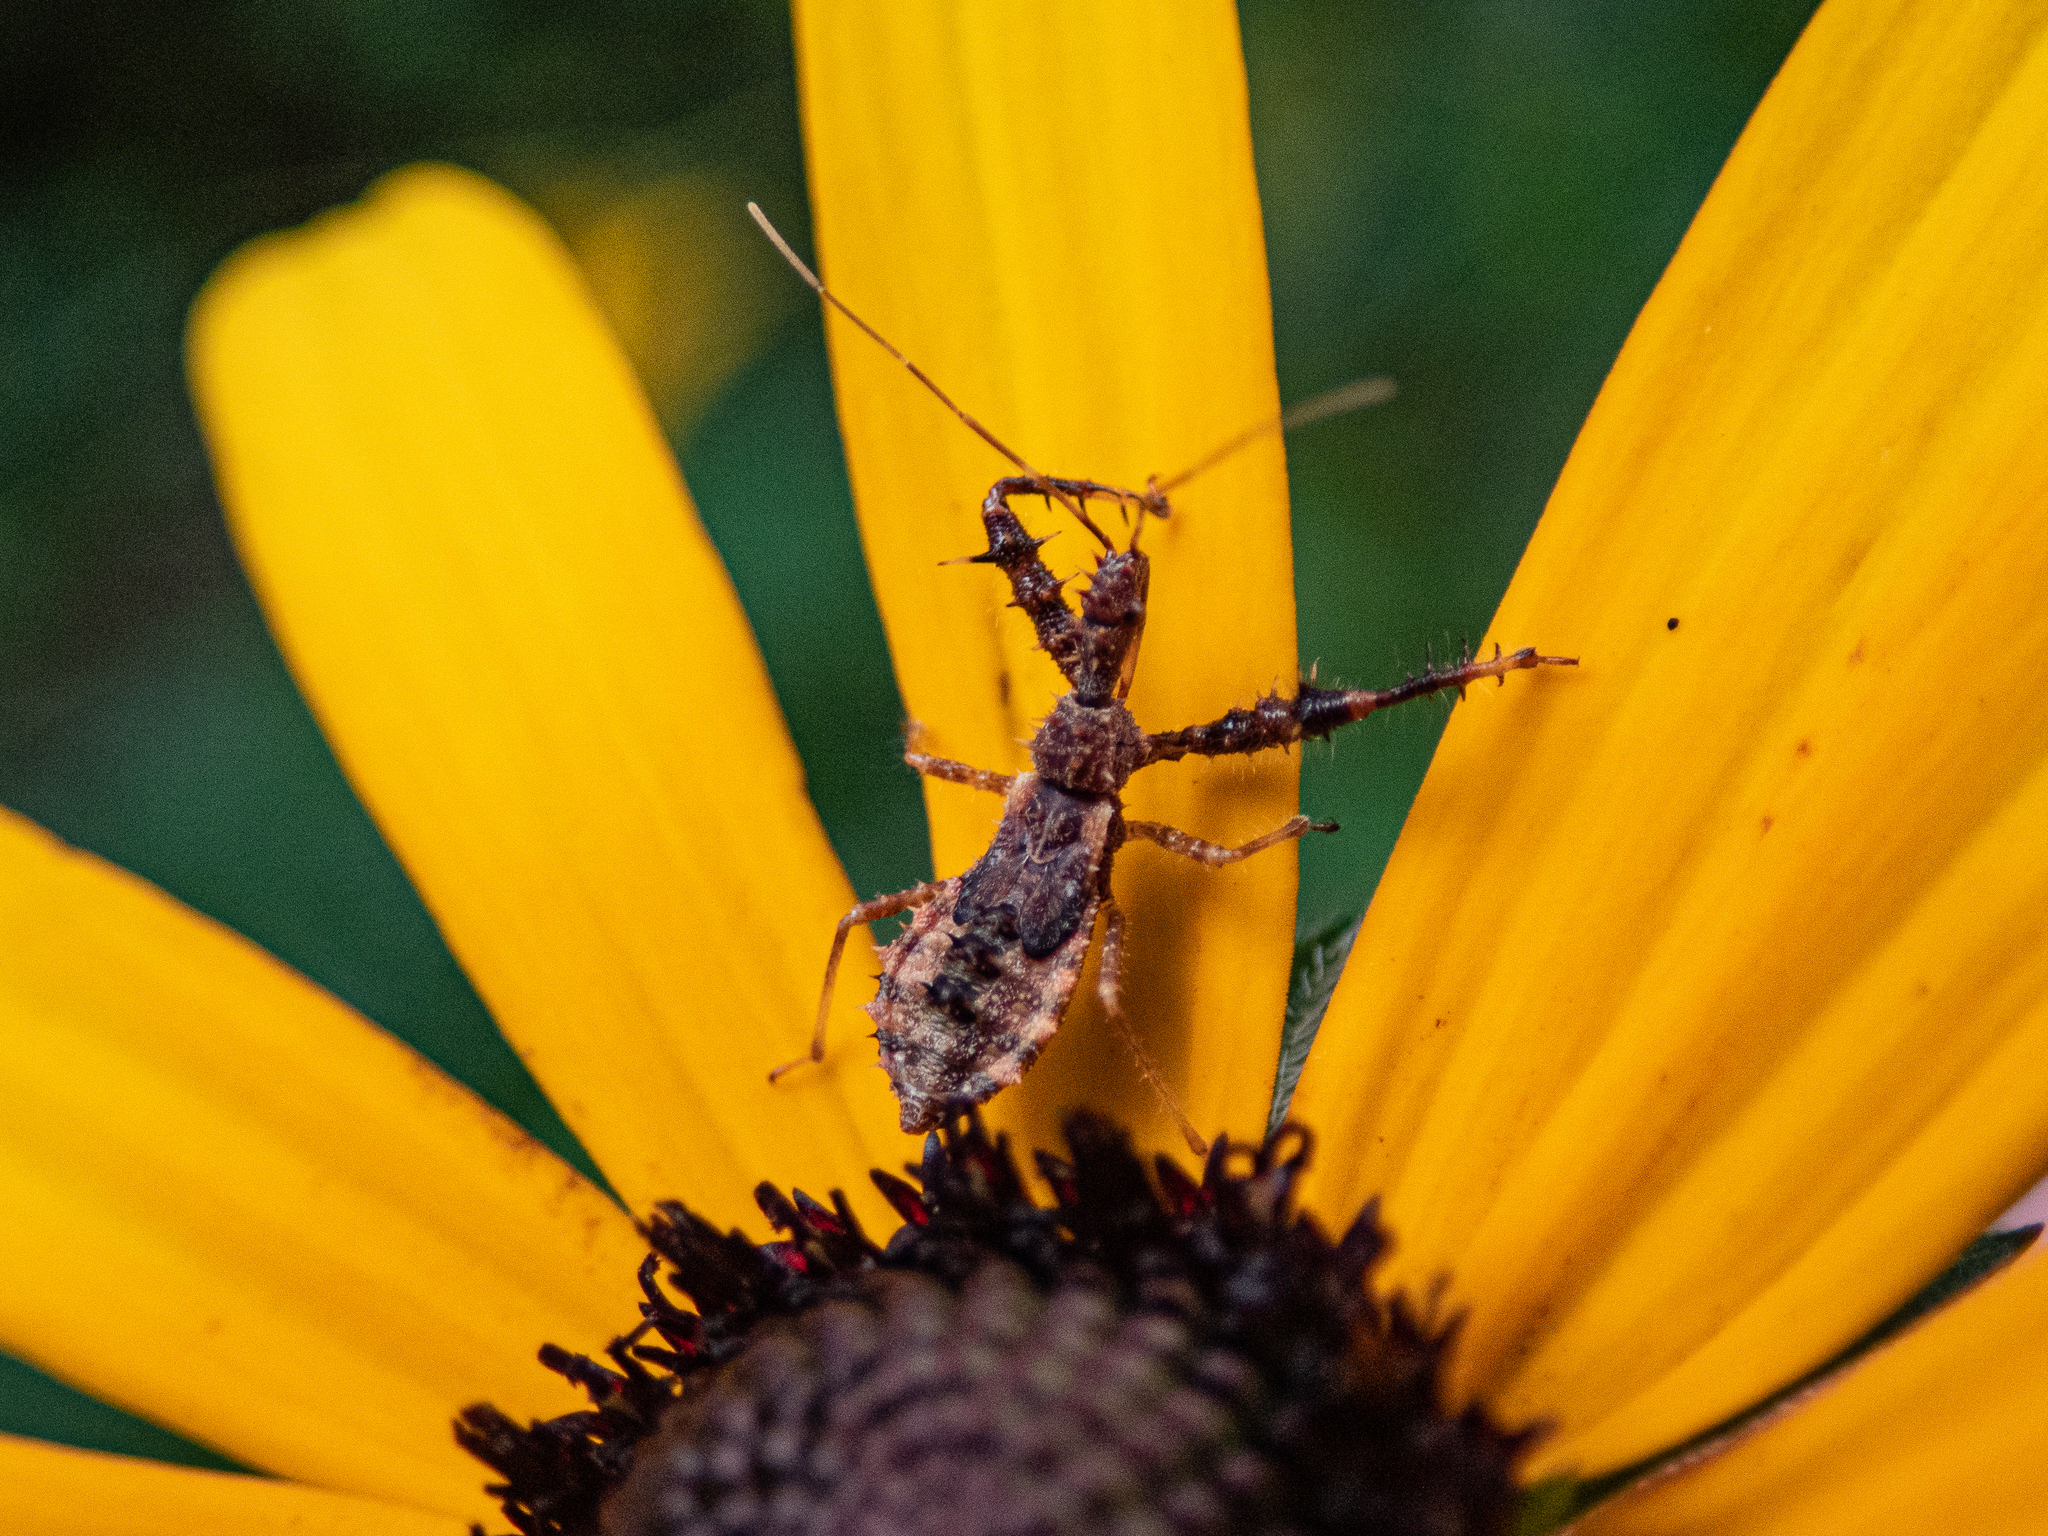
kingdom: Animalia
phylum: Arthropoda
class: Insecta
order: Hemiptera
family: Reduviidae
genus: Sinea
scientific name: Sinea spinipes
